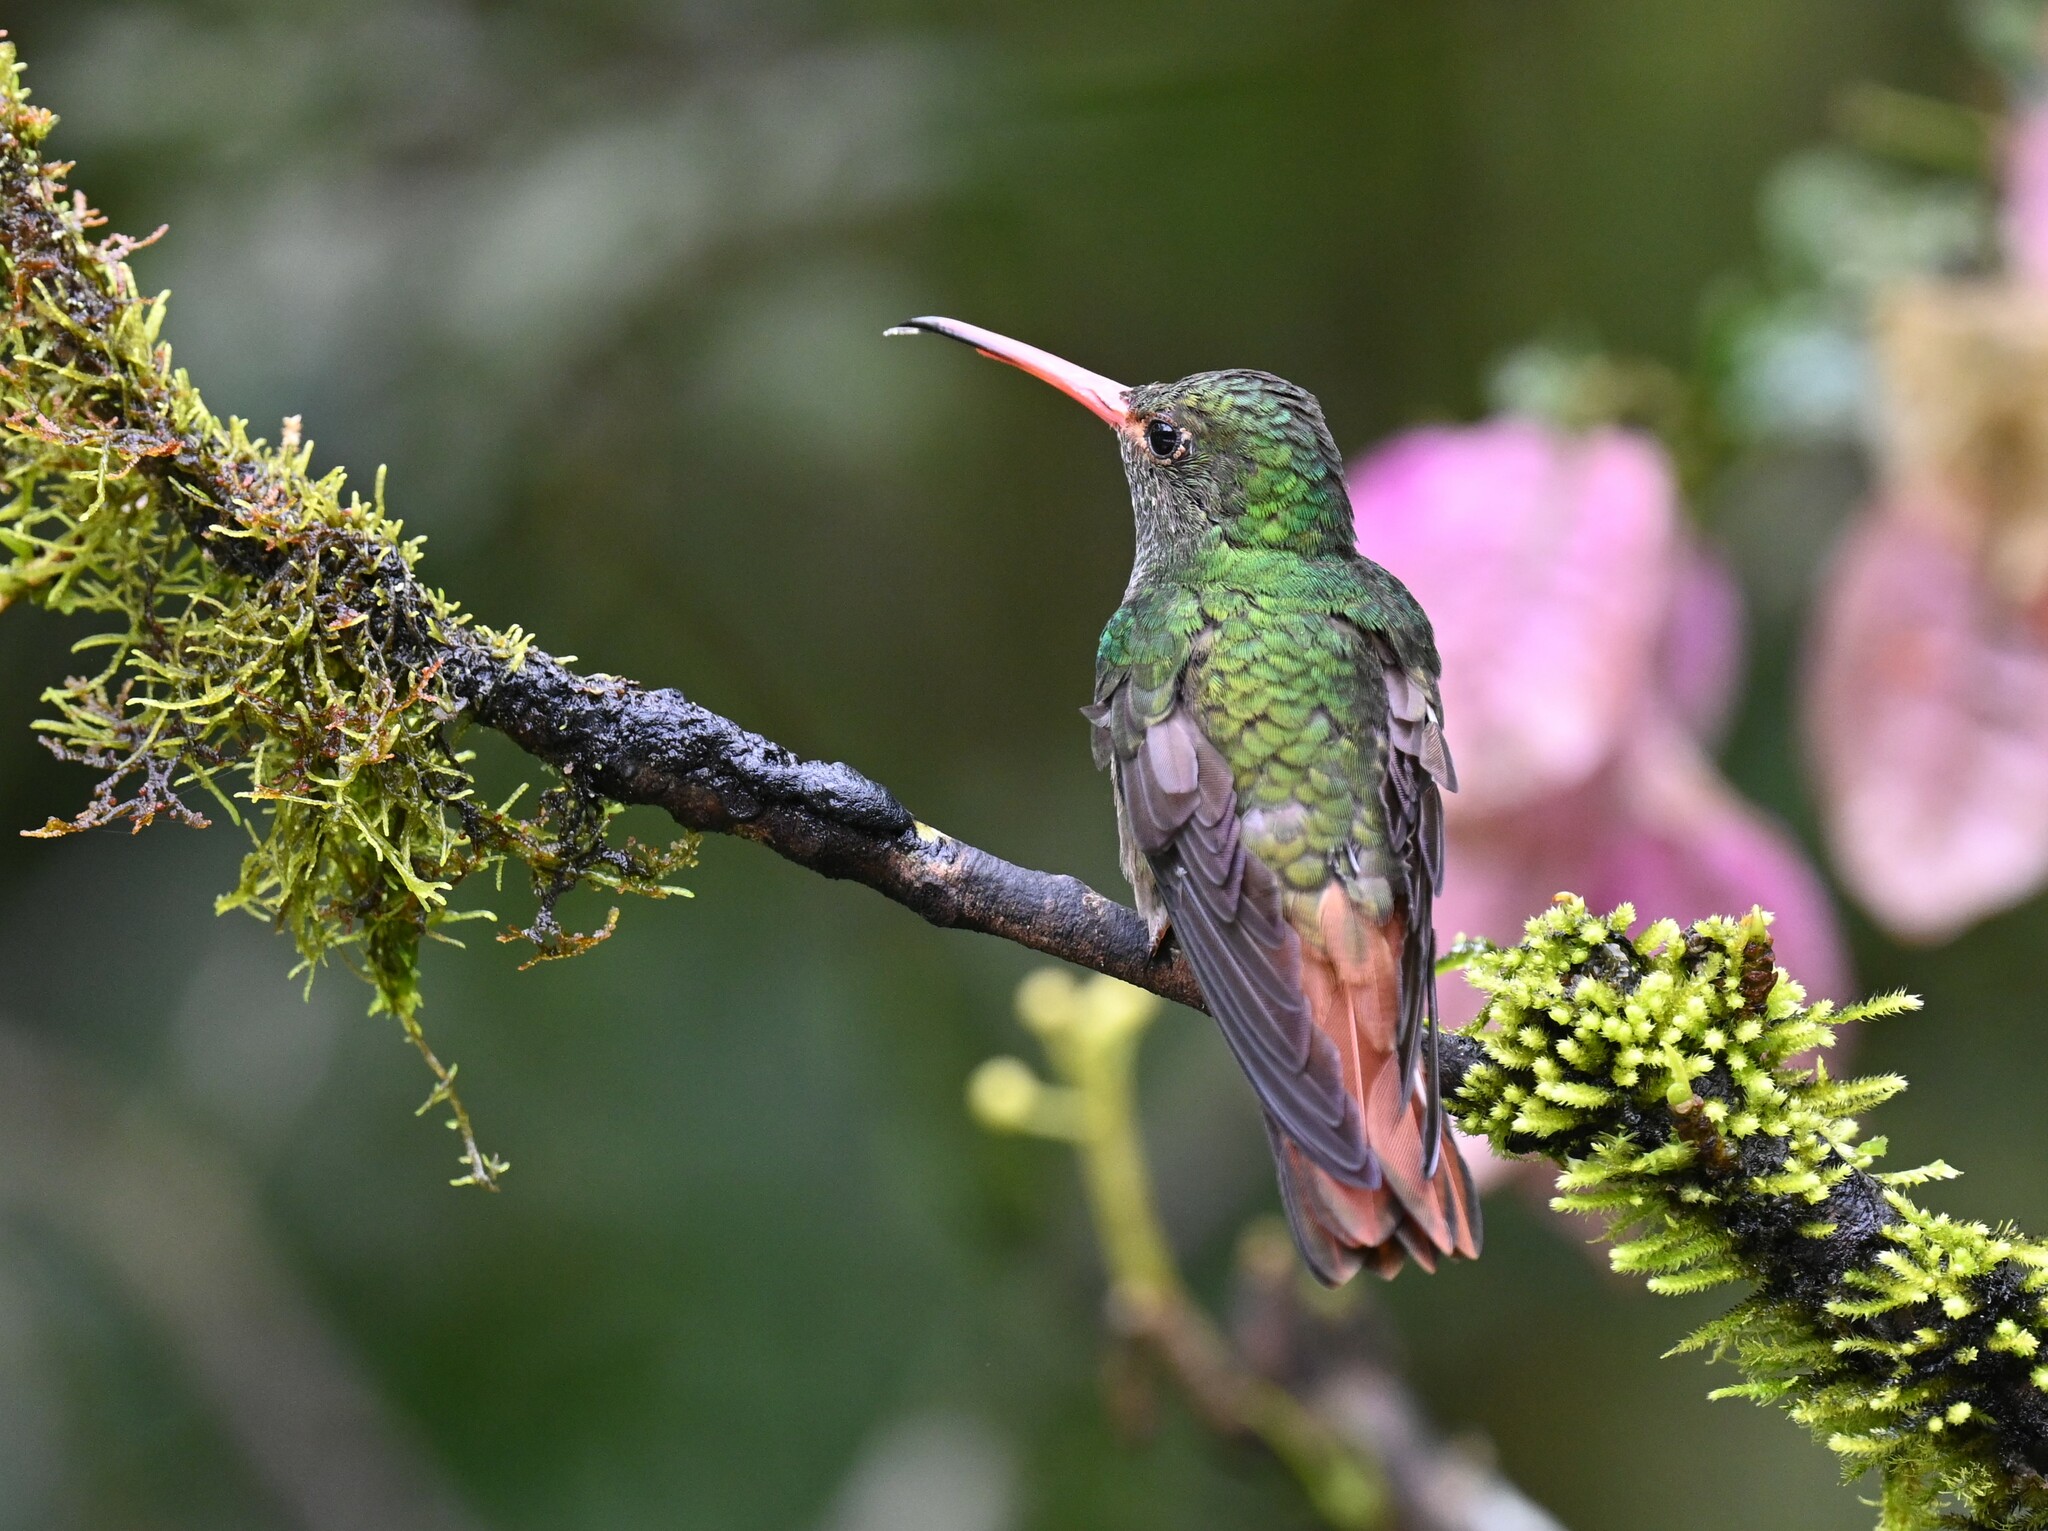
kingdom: Animalia
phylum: Chordata
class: Aves
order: Apodiformes
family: Trochilidae
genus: Amazilia
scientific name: Amazilia tzacatl
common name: Rufous-tailed hummingbird
